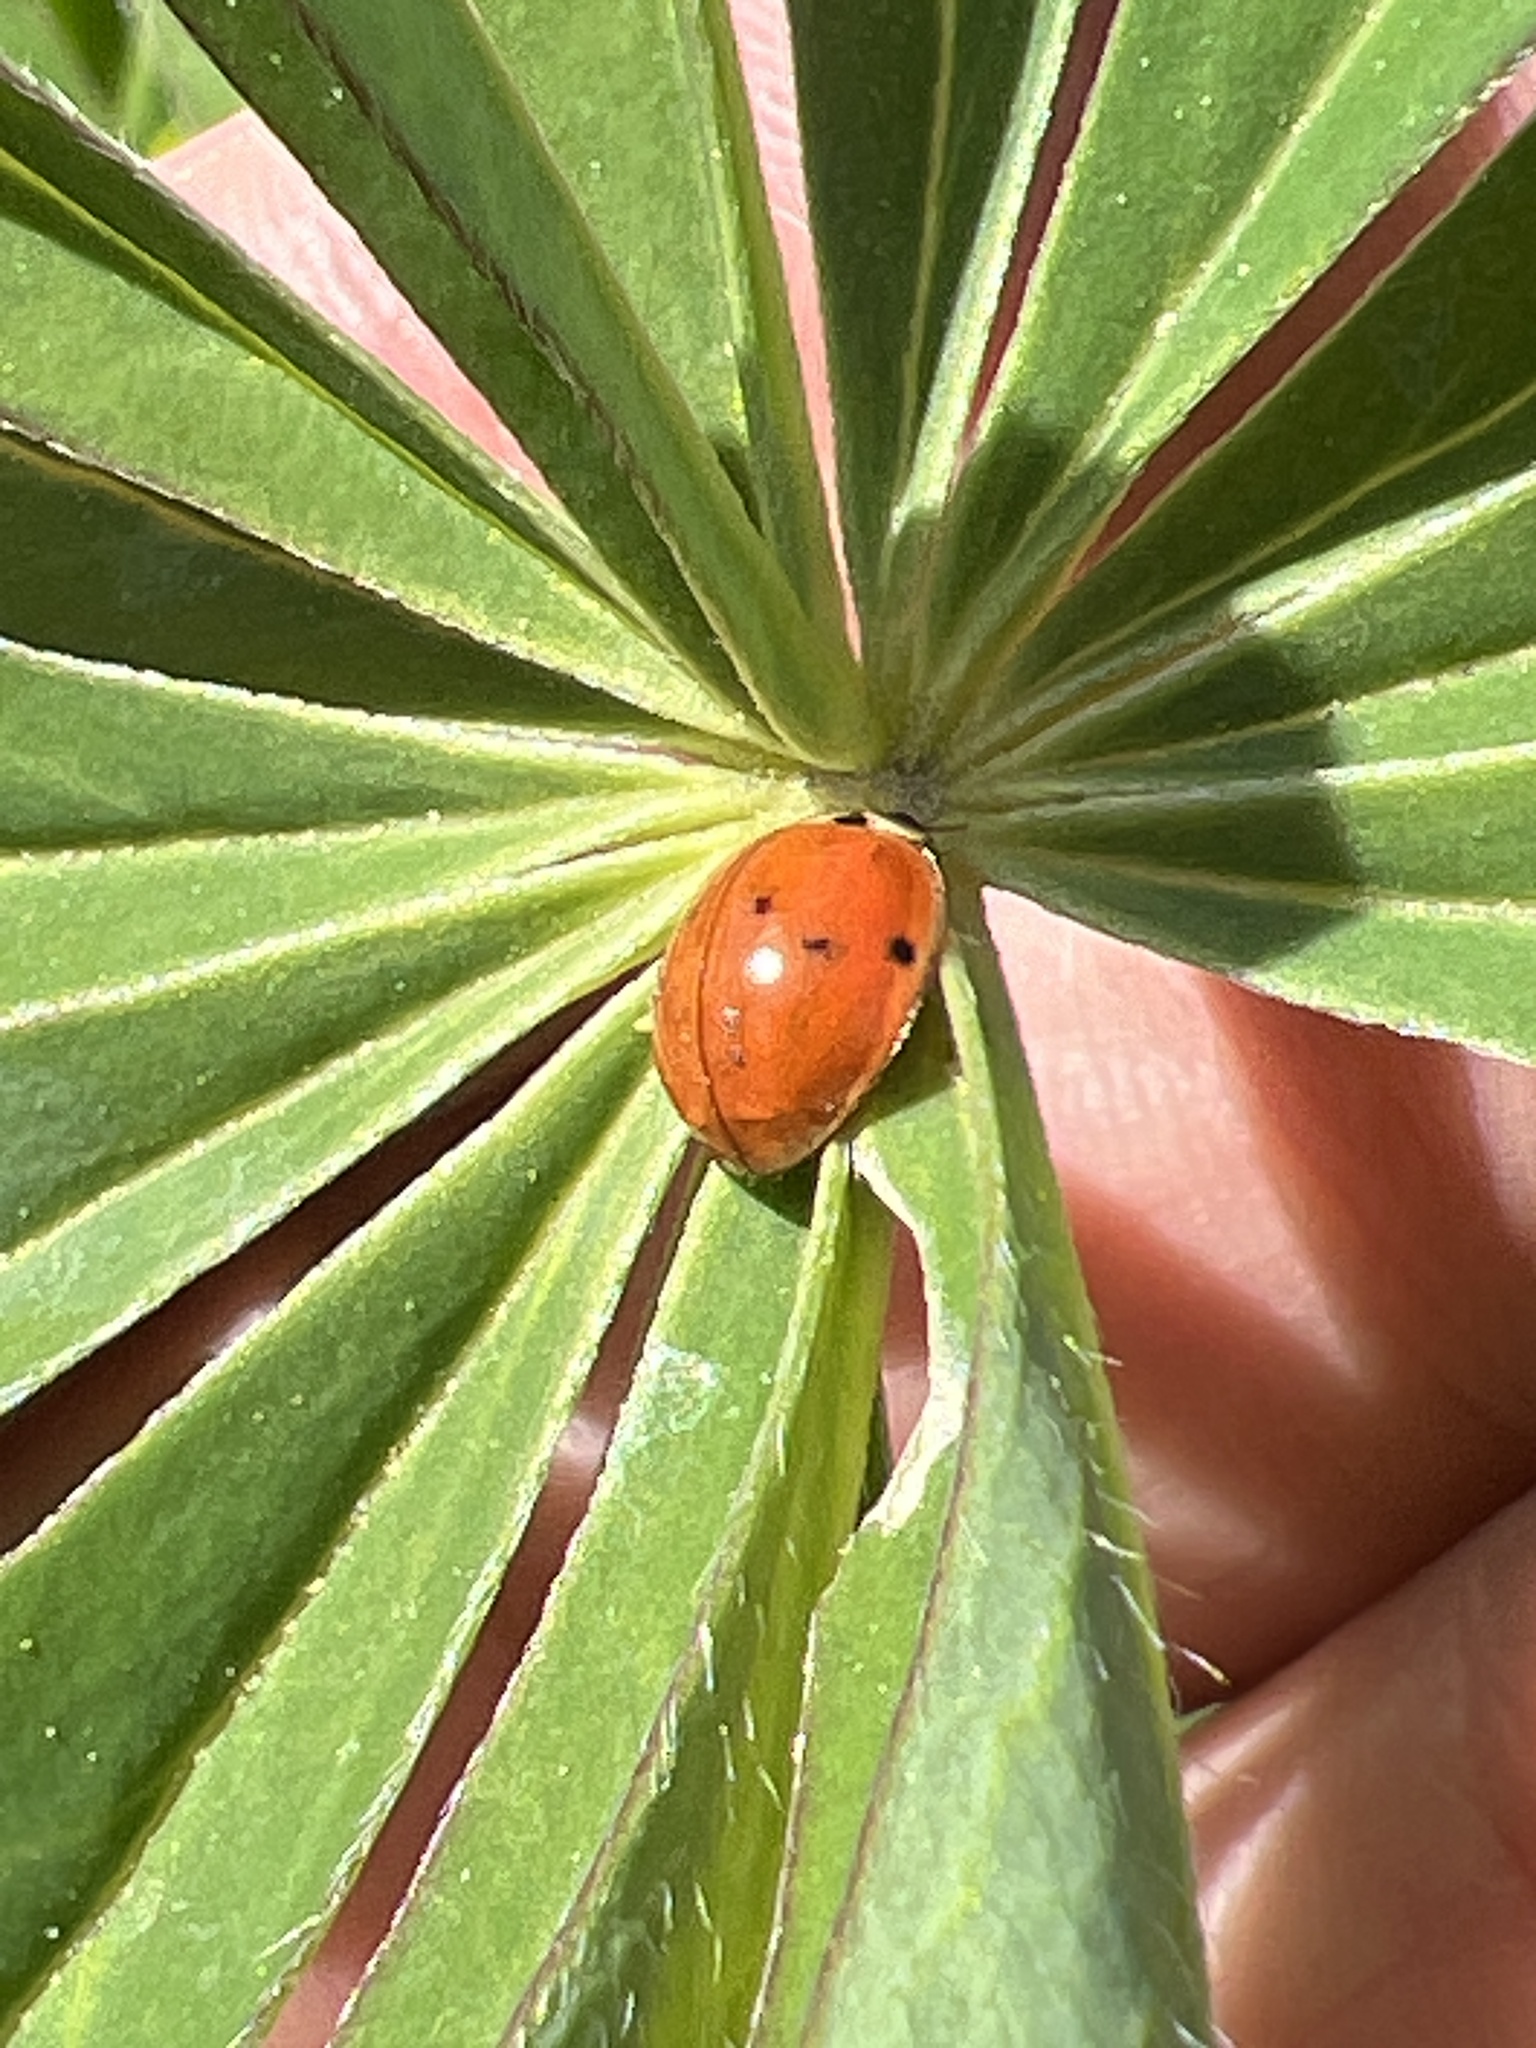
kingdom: Animalia
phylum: Arthropoda
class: Insecta
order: Coleoptera
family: Coccinellidae
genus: Harmonia
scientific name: Harmonia axyridis
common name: Harlequin ladybird
